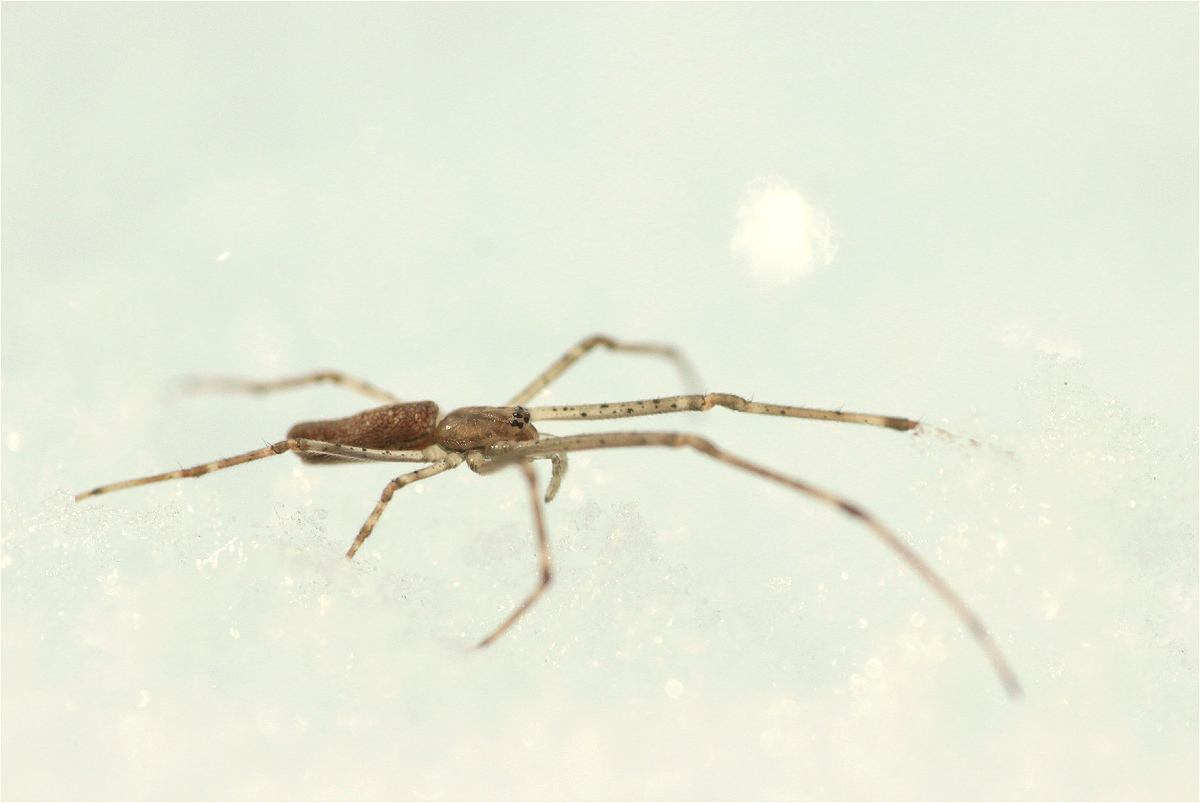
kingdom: Animalia
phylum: Arthropoda
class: Arachnida
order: Araneae
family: Tetragnathidae
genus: Tetragnatha
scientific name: Tetragnatha
